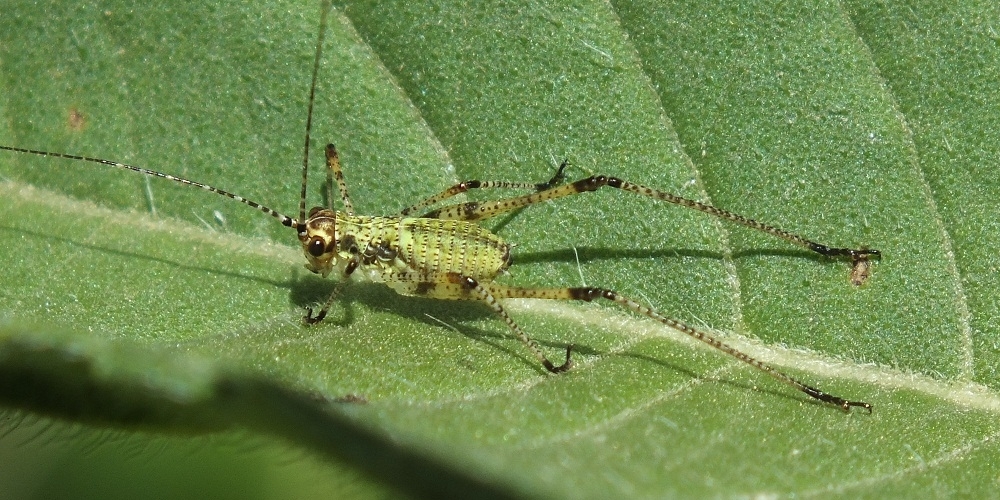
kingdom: Animalia
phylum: Arthropoda
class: Insecta
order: Orthoptera
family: Tettigoniidae
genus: Phaneroptera
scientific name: Phaneroptera nana
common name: Southern sickle bush-cricket
